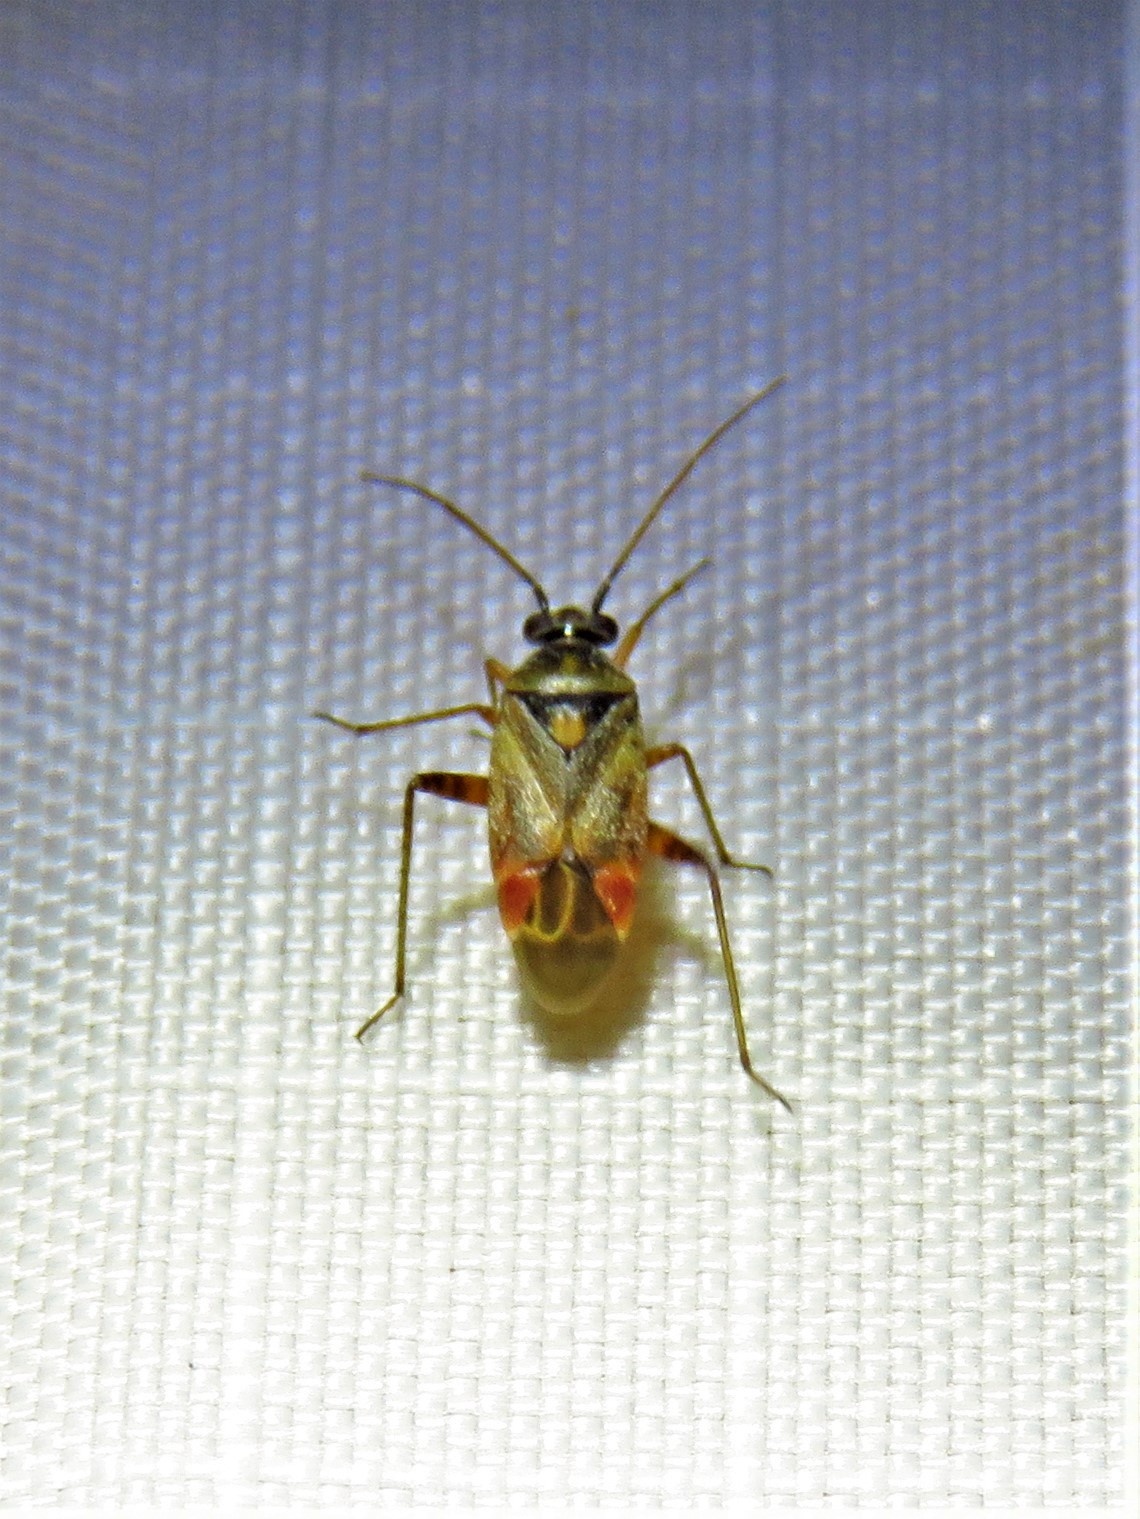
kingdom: Animalia
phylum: Arthropoda
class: Insecta
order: Hemiptera
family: Miridae
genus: Polymerus
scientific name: Polymerus basalis
